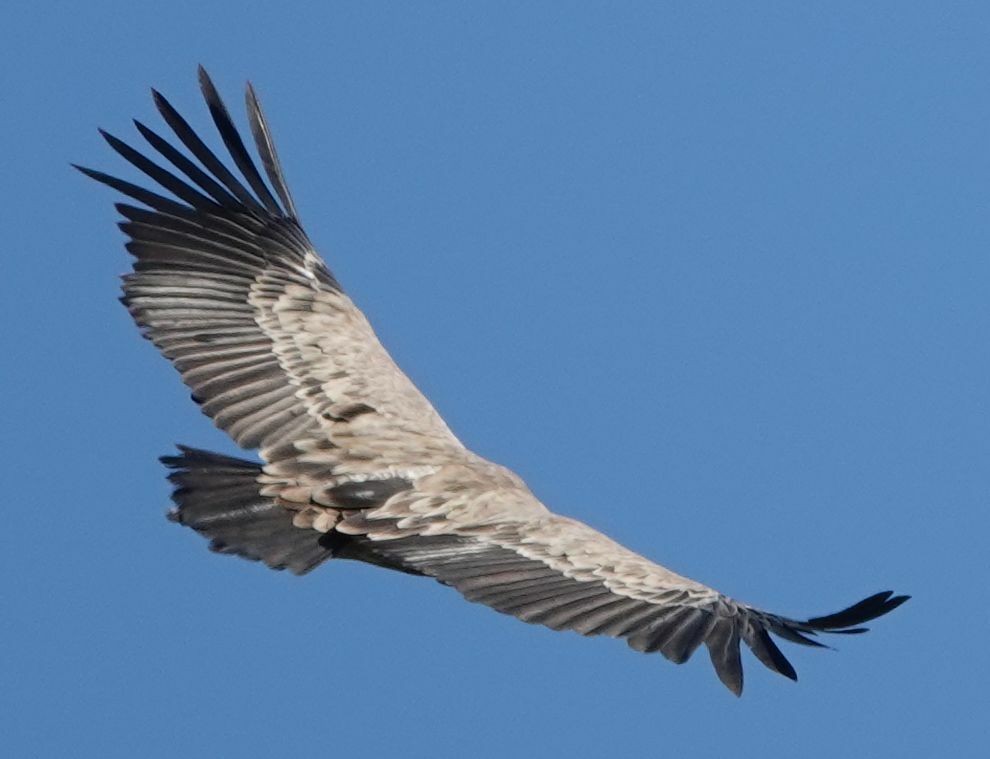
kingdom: Animalia
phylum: Chordata
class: Aves
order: Accipitriformes
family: Accipitridae
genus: Gyps
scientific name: Gyps fulvus
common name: Griffon vulture
